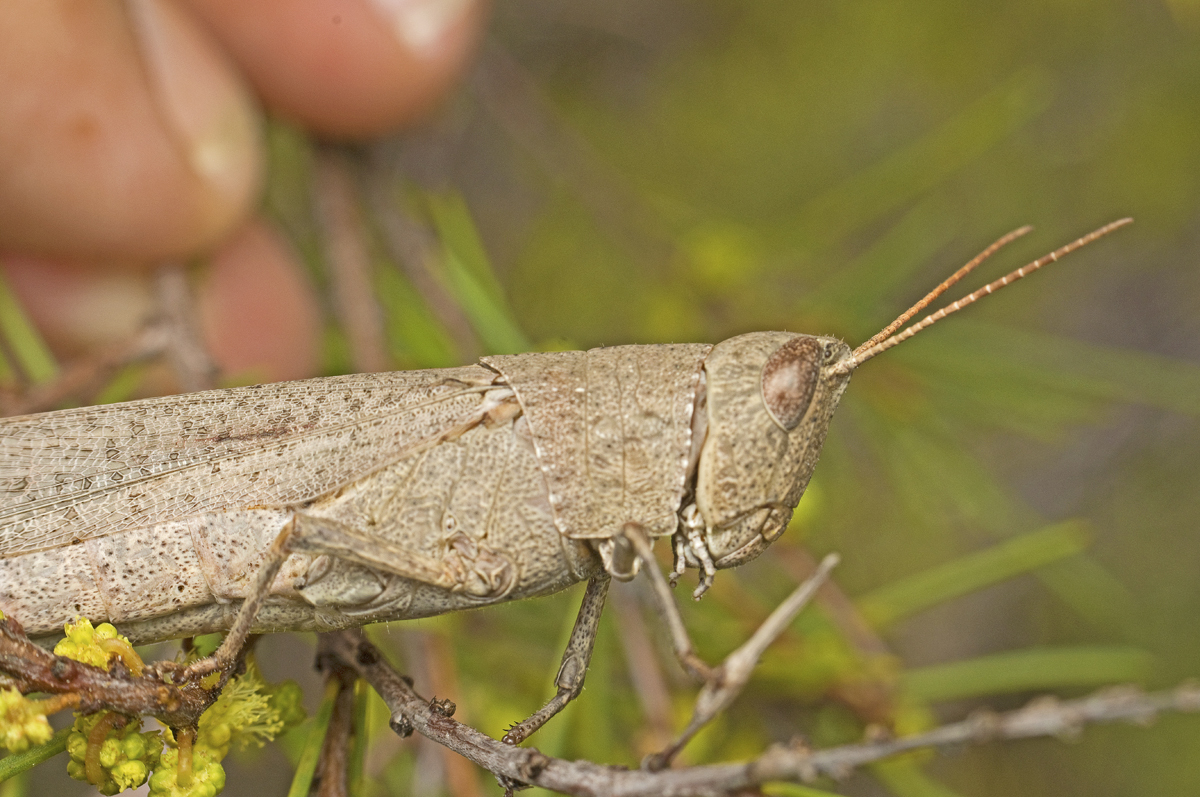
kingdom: Animalia
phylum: Arthropoda
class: Insecta
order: Orthoptera
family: Acrididae
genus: Goniaea
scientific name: Goniaea opomaloides
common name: Mimetic gumleaf grasshopper
